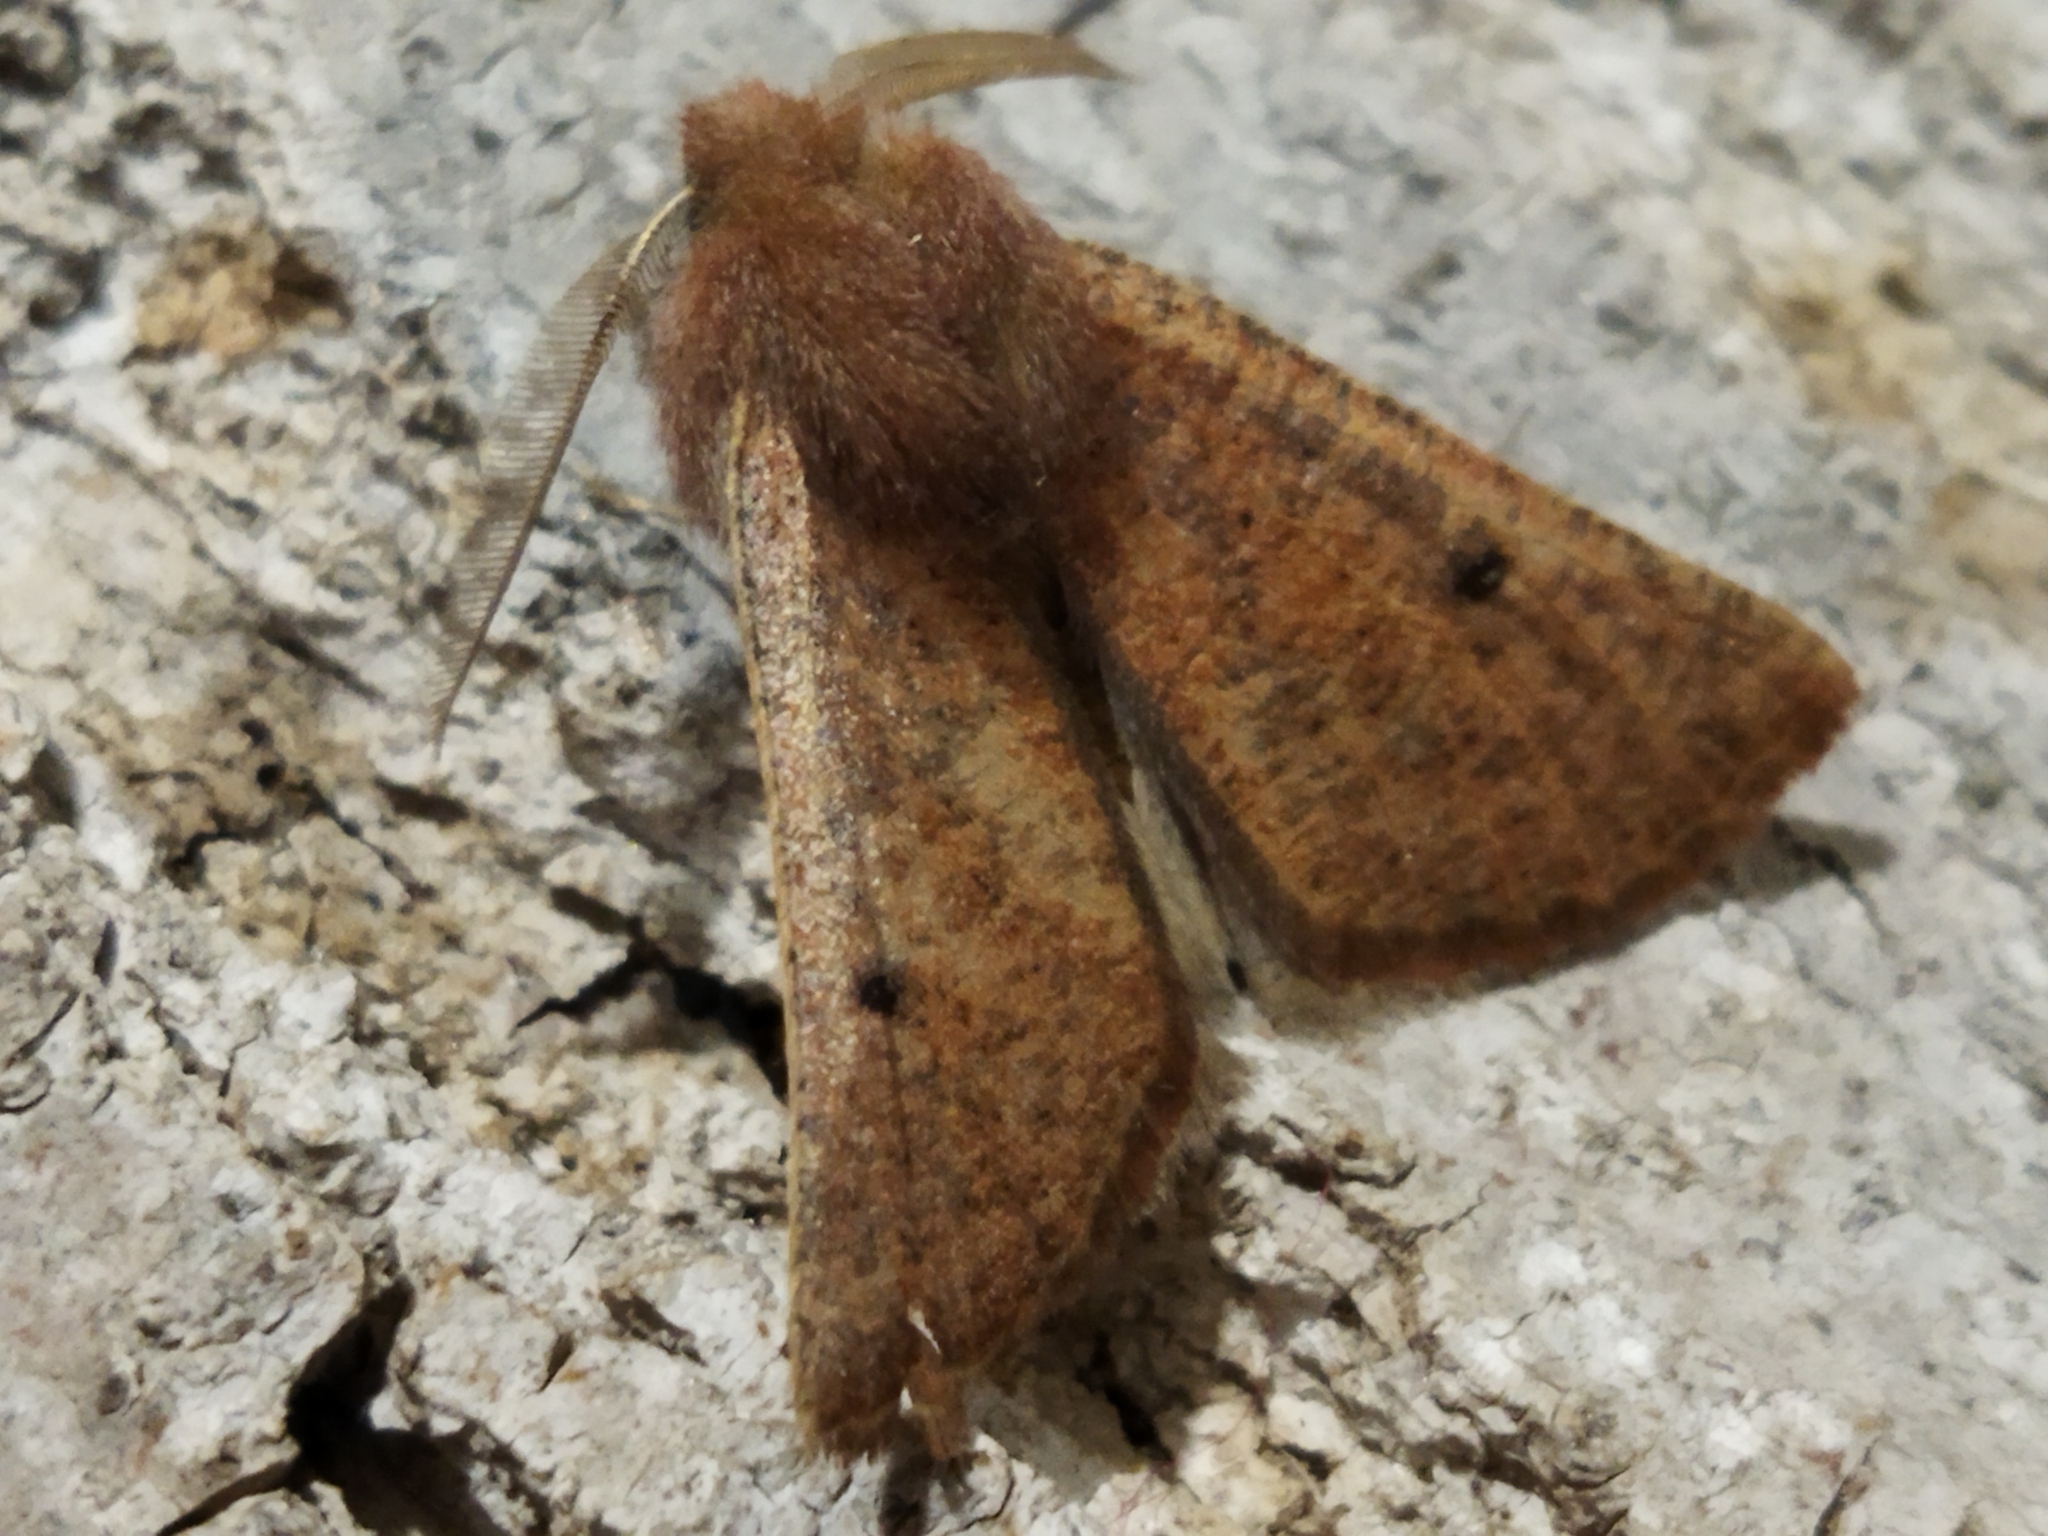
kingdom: Animalia
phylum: Arthropoda
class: Insecta
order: Lepidoptera
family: Geometridae
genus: Dasycorsa
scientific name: Dasycorsa modesta
